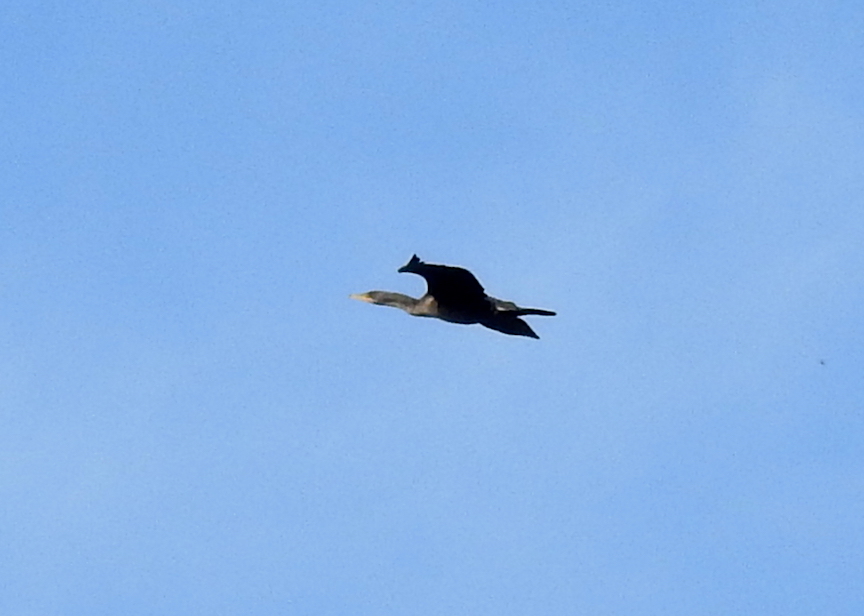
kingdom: Animalia
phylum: Chordata
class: Aves
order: Suliformes
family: Phalacrocoracidae
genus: Phalacrocorax
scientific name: Phalacrocorax auritus
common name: Double-crested cormorant
